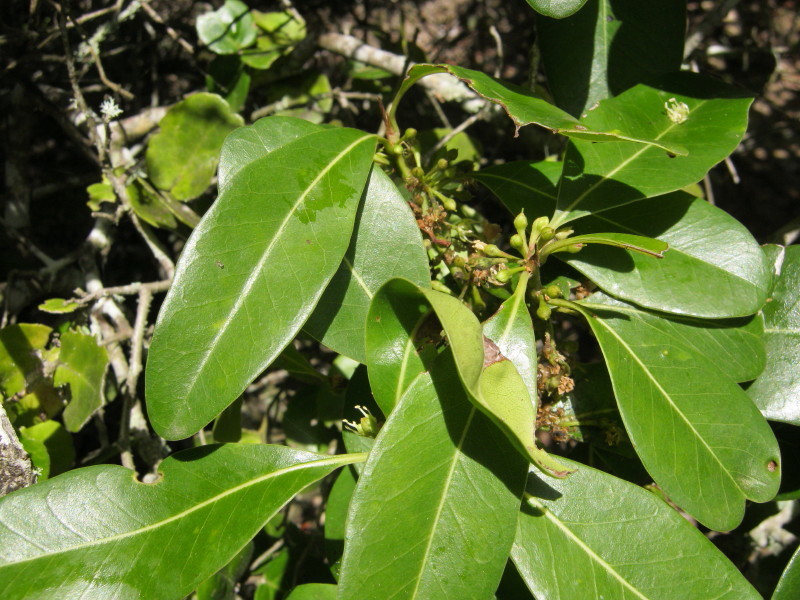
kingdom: Plantae
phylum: Tracheophyta
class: Magnoliopsida
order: Ericales
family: Sapotaceae
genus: Sideroxylon
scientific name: Sideroxylon inerme
